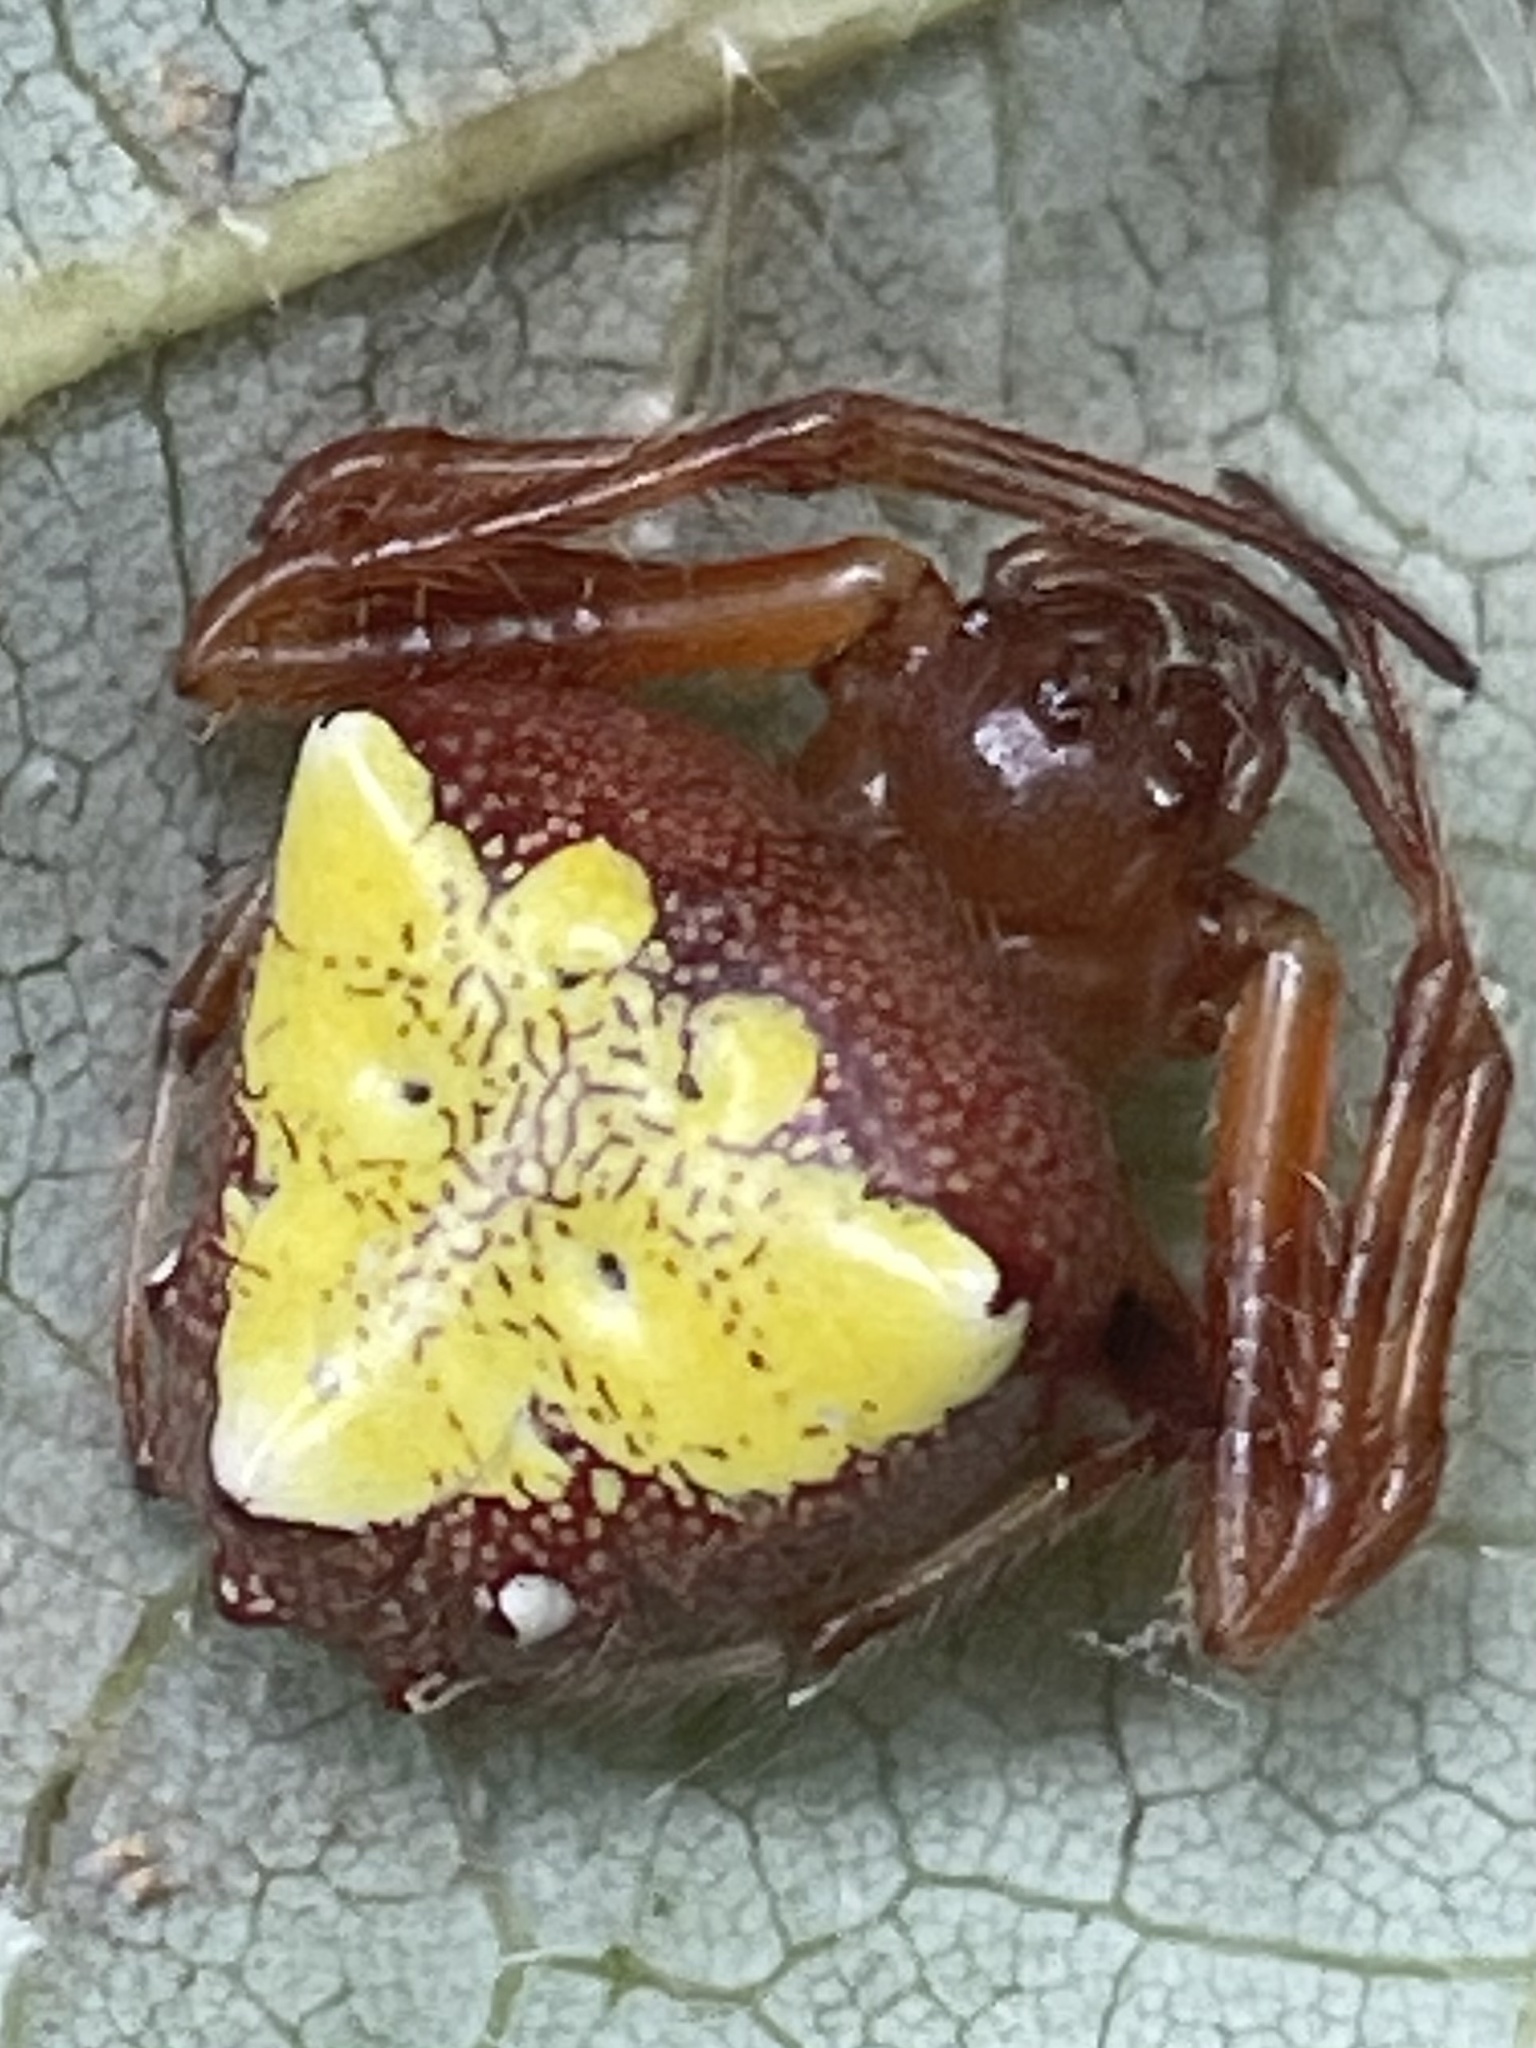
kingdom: Animalia
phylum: Arthropoda
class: Arachnida
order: Araneae
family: Araneidae
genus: Verrucosa
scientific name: Verrucosa arenata
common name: Orb weavers
